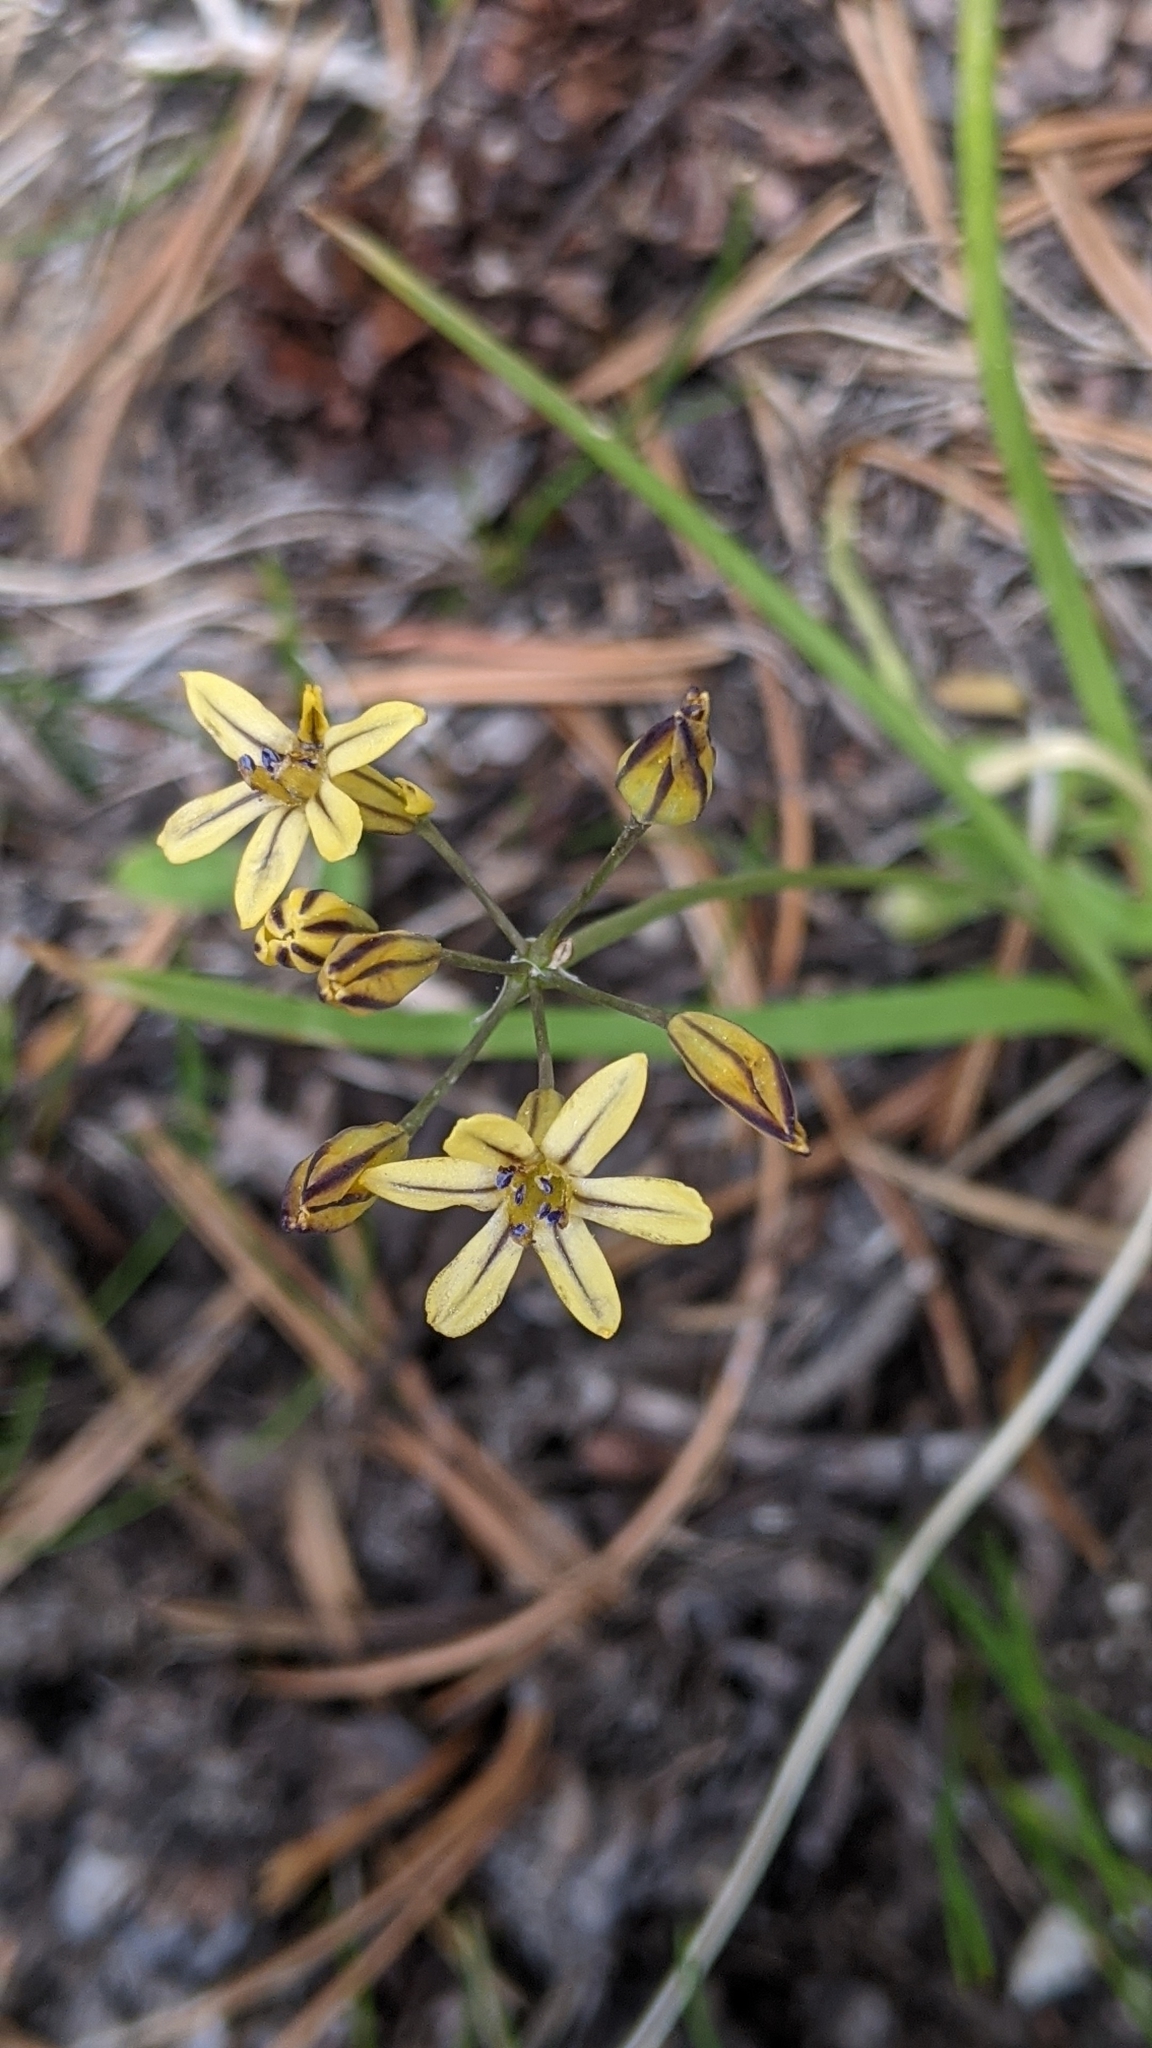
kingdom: Plantae
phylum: Tracheophyta
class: Liliopsida
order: Asparagales
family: Asparagaceae
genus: Triteleia
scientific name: Triteleia ixioides
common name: Yellow-brodiaea
